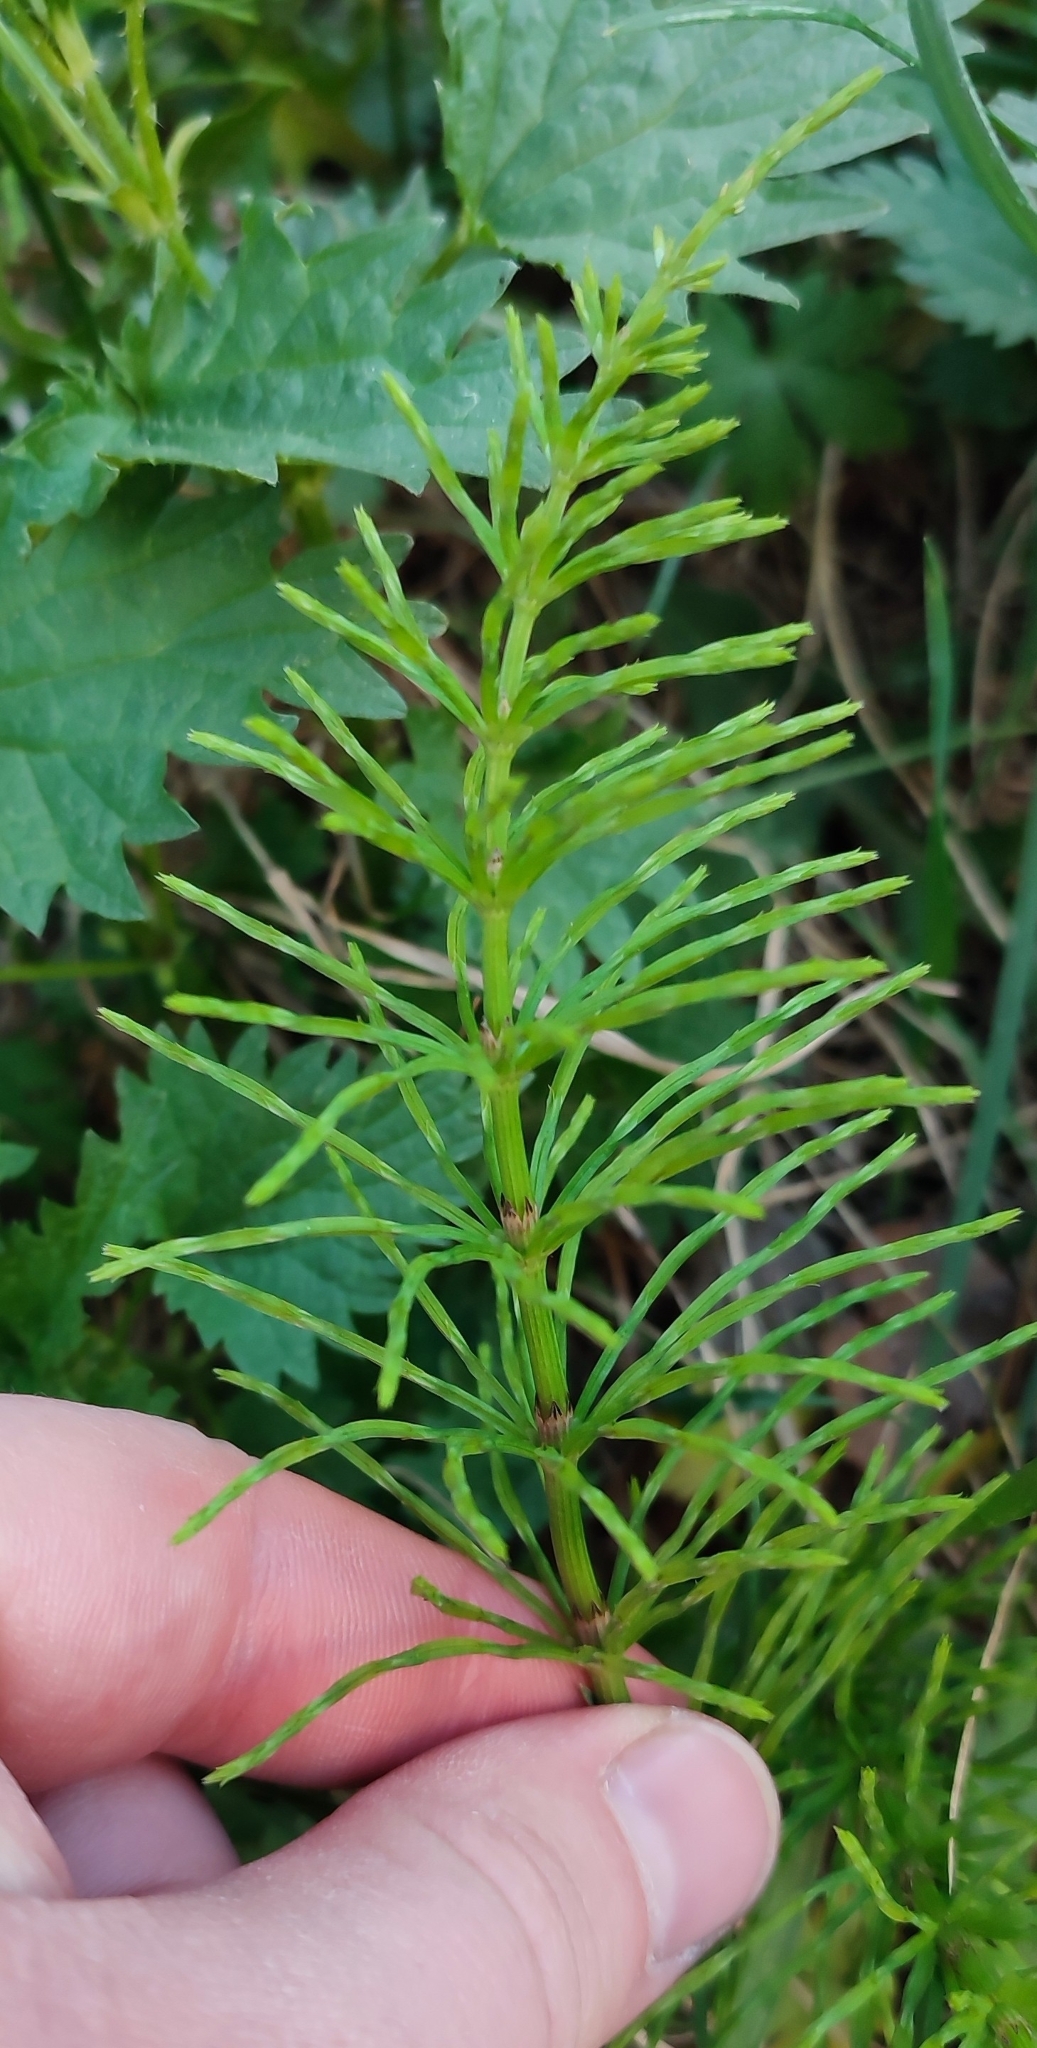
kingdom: Plantae
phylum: Tracheophyta
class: Polypodiopsida
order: Equisetales
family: Equisetaceae
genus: Equisetum
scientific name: Equisetum arvense
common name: Field horsetail
